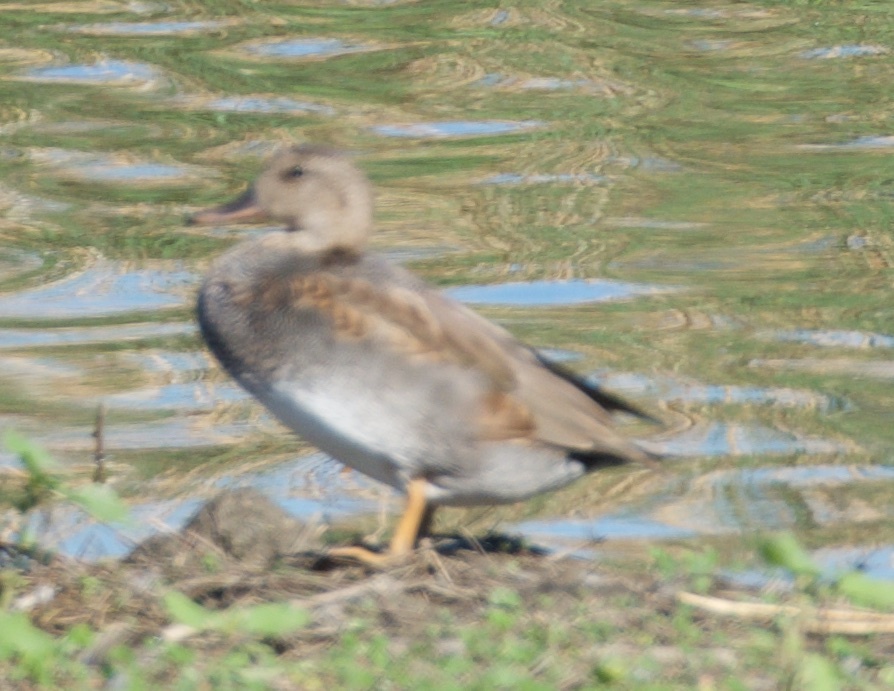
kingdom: Animalia
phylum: Chordata
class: Aves
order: Anseriformes
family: Anatidae
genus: Mareca
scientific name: Mareca strepera
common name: Gadwall
